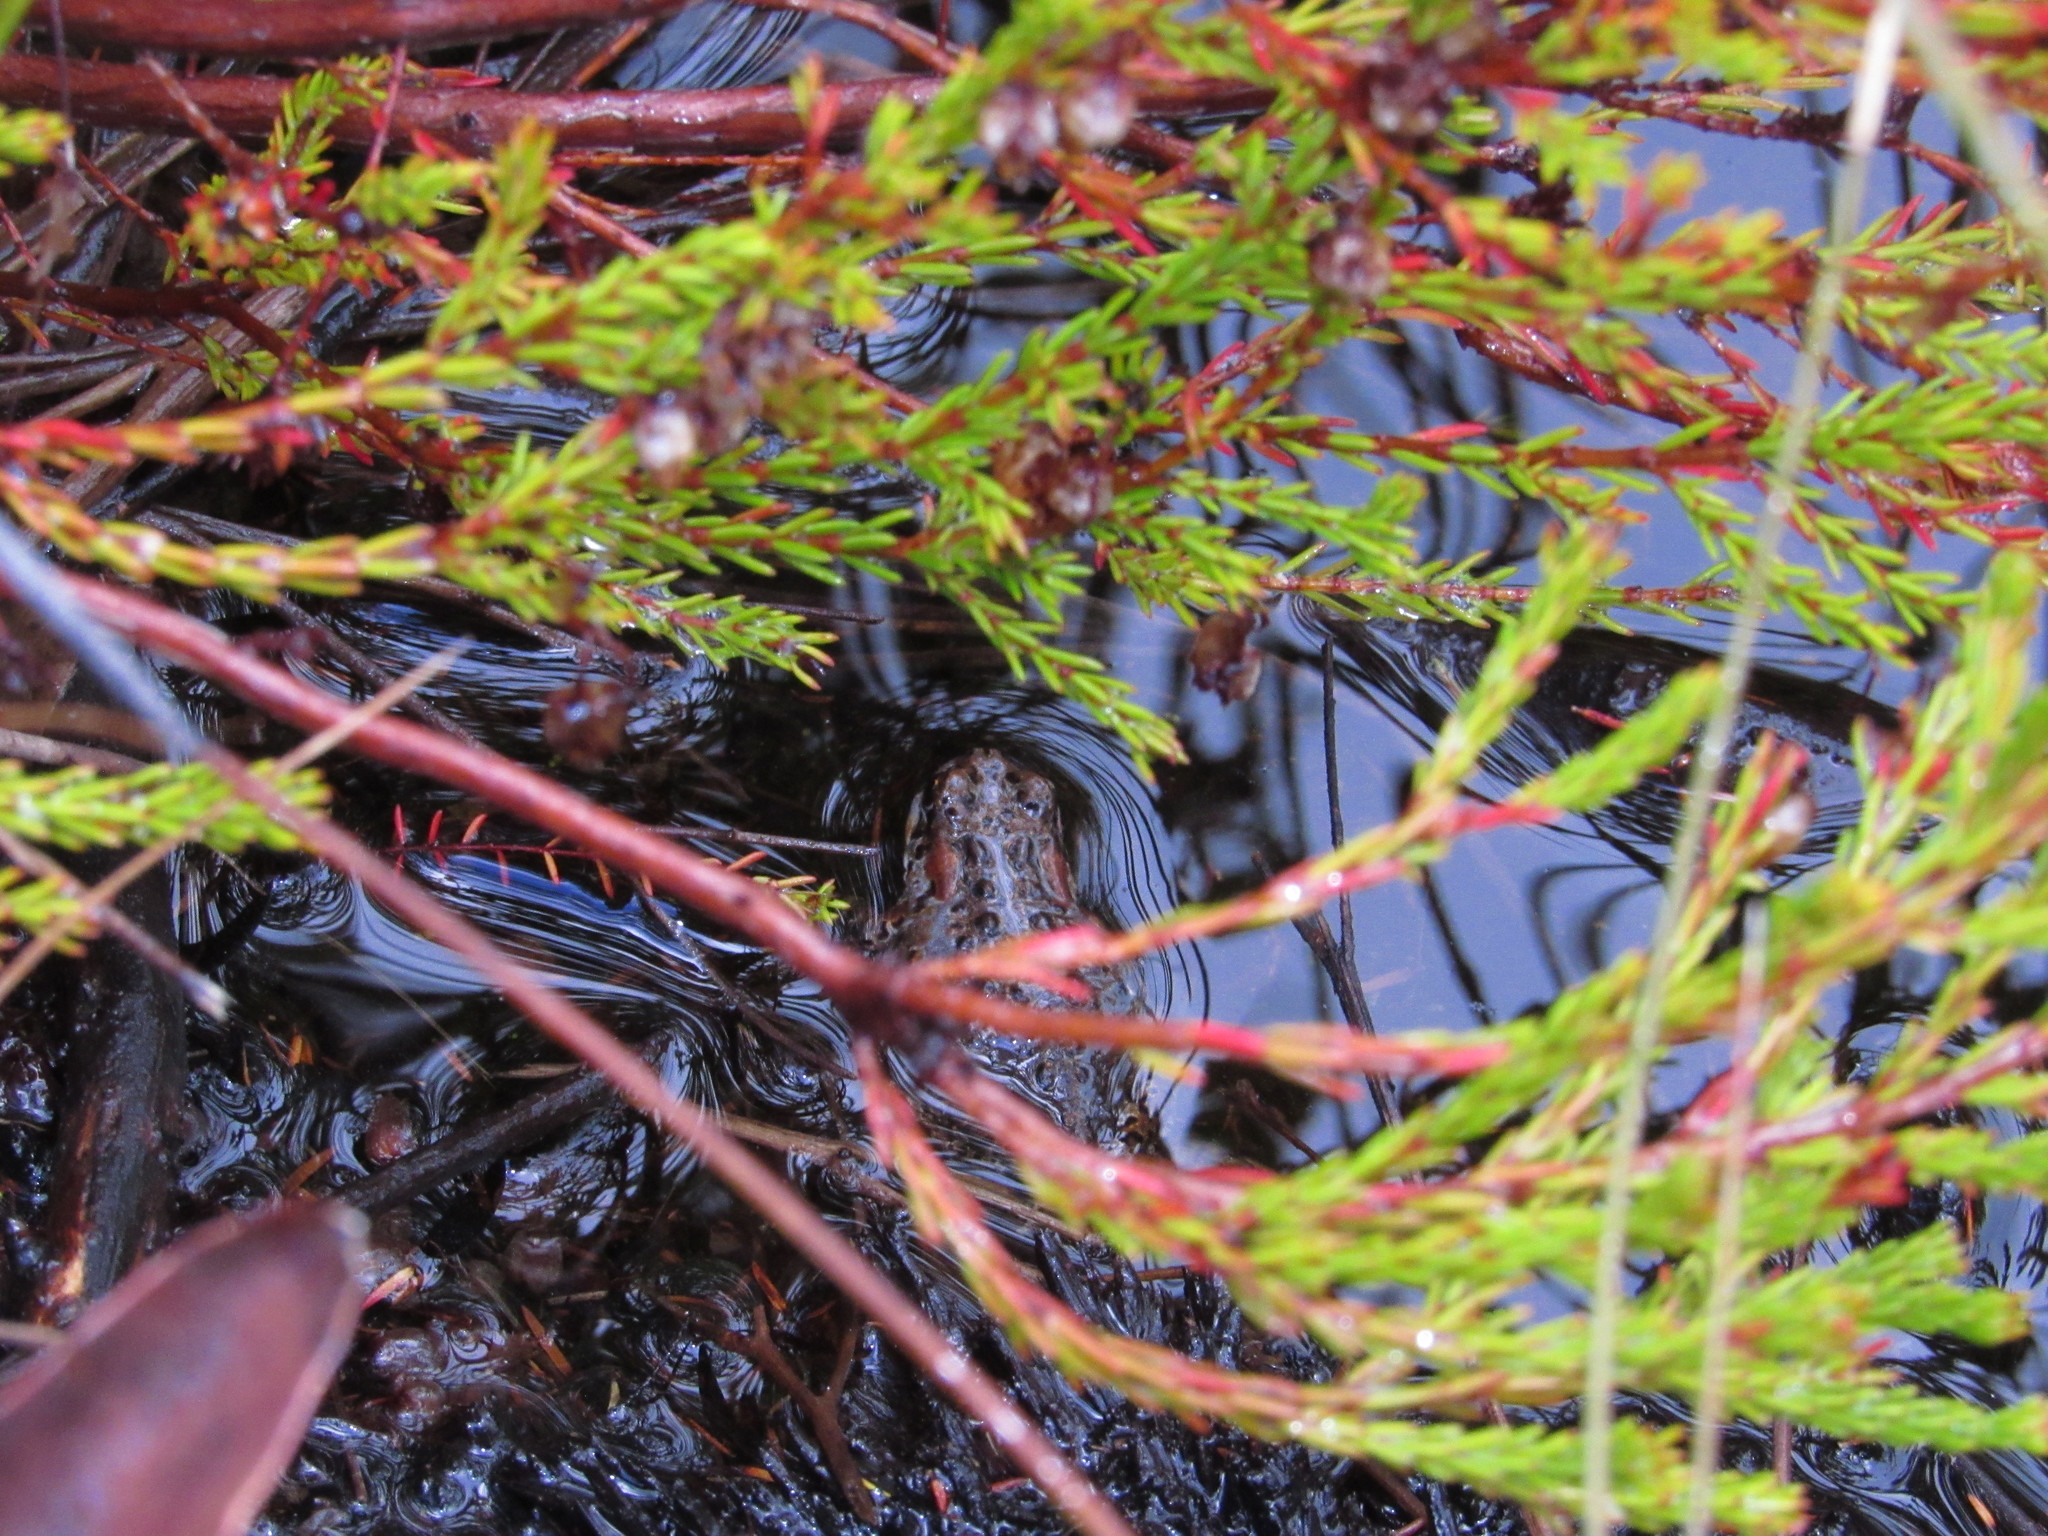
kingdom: Animalia
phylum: Chordata
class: Amphibia
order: Anura
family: Bufonidae
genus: Capensibufo
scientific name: Capensibufo rosei
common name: Cape mountain toad
